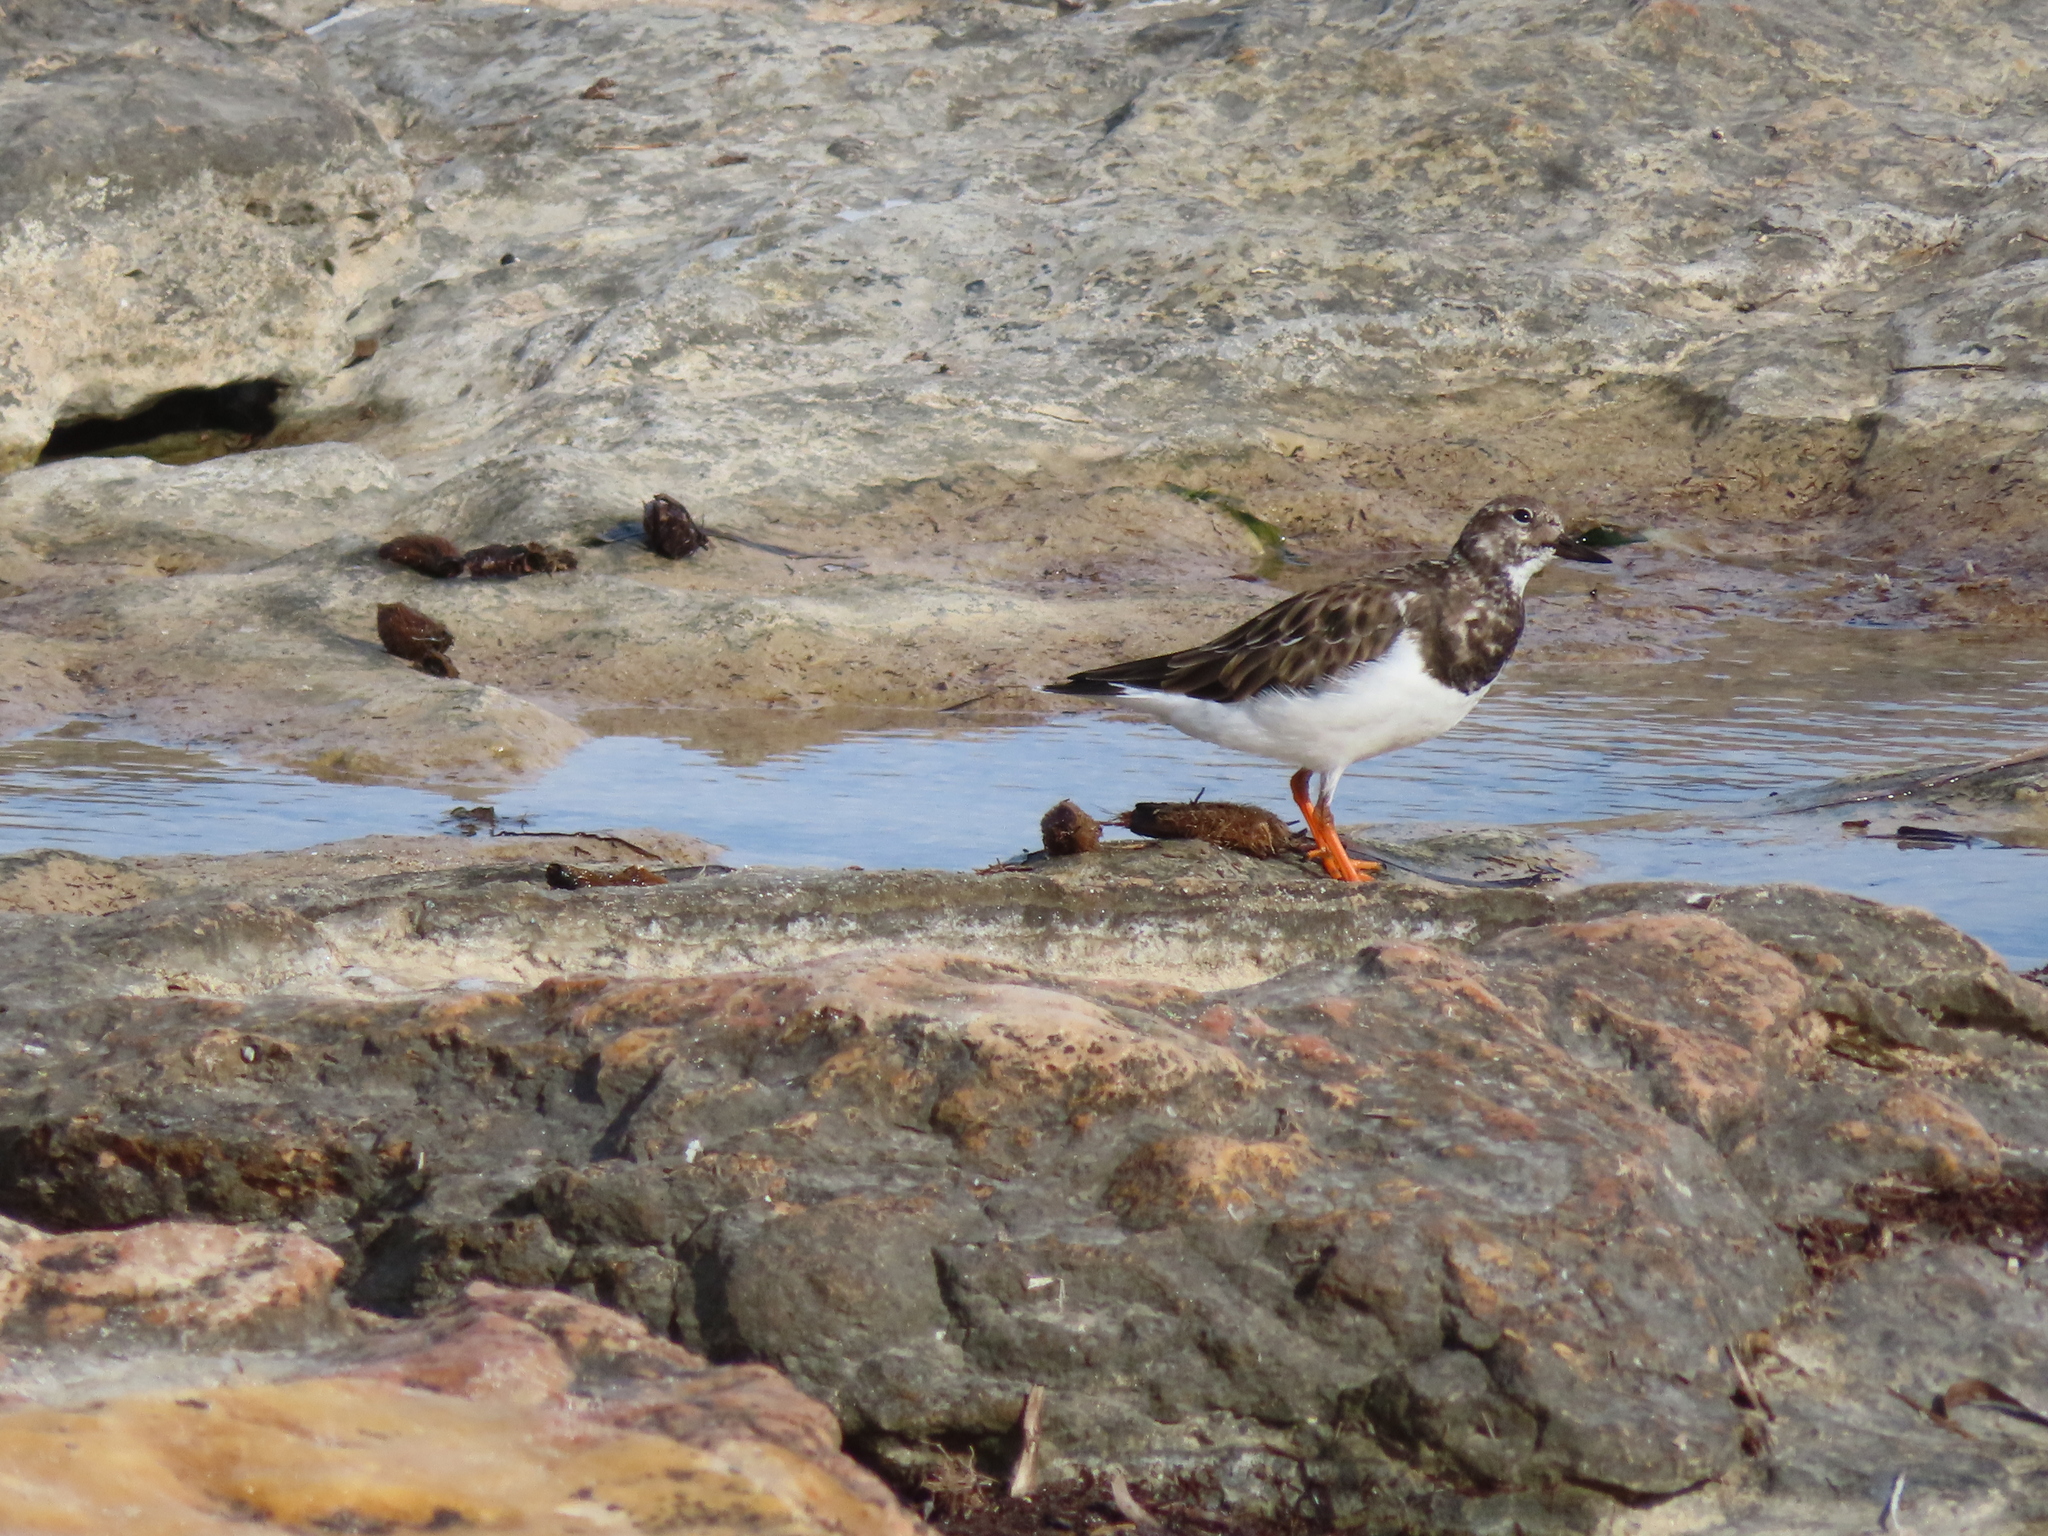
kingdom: Animalia
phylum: Chordata
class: Aves
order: Charadriiformes
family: Scolopacidae
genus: Arenaria
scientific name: Arenaria interpres
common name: Ruddy turnstone
